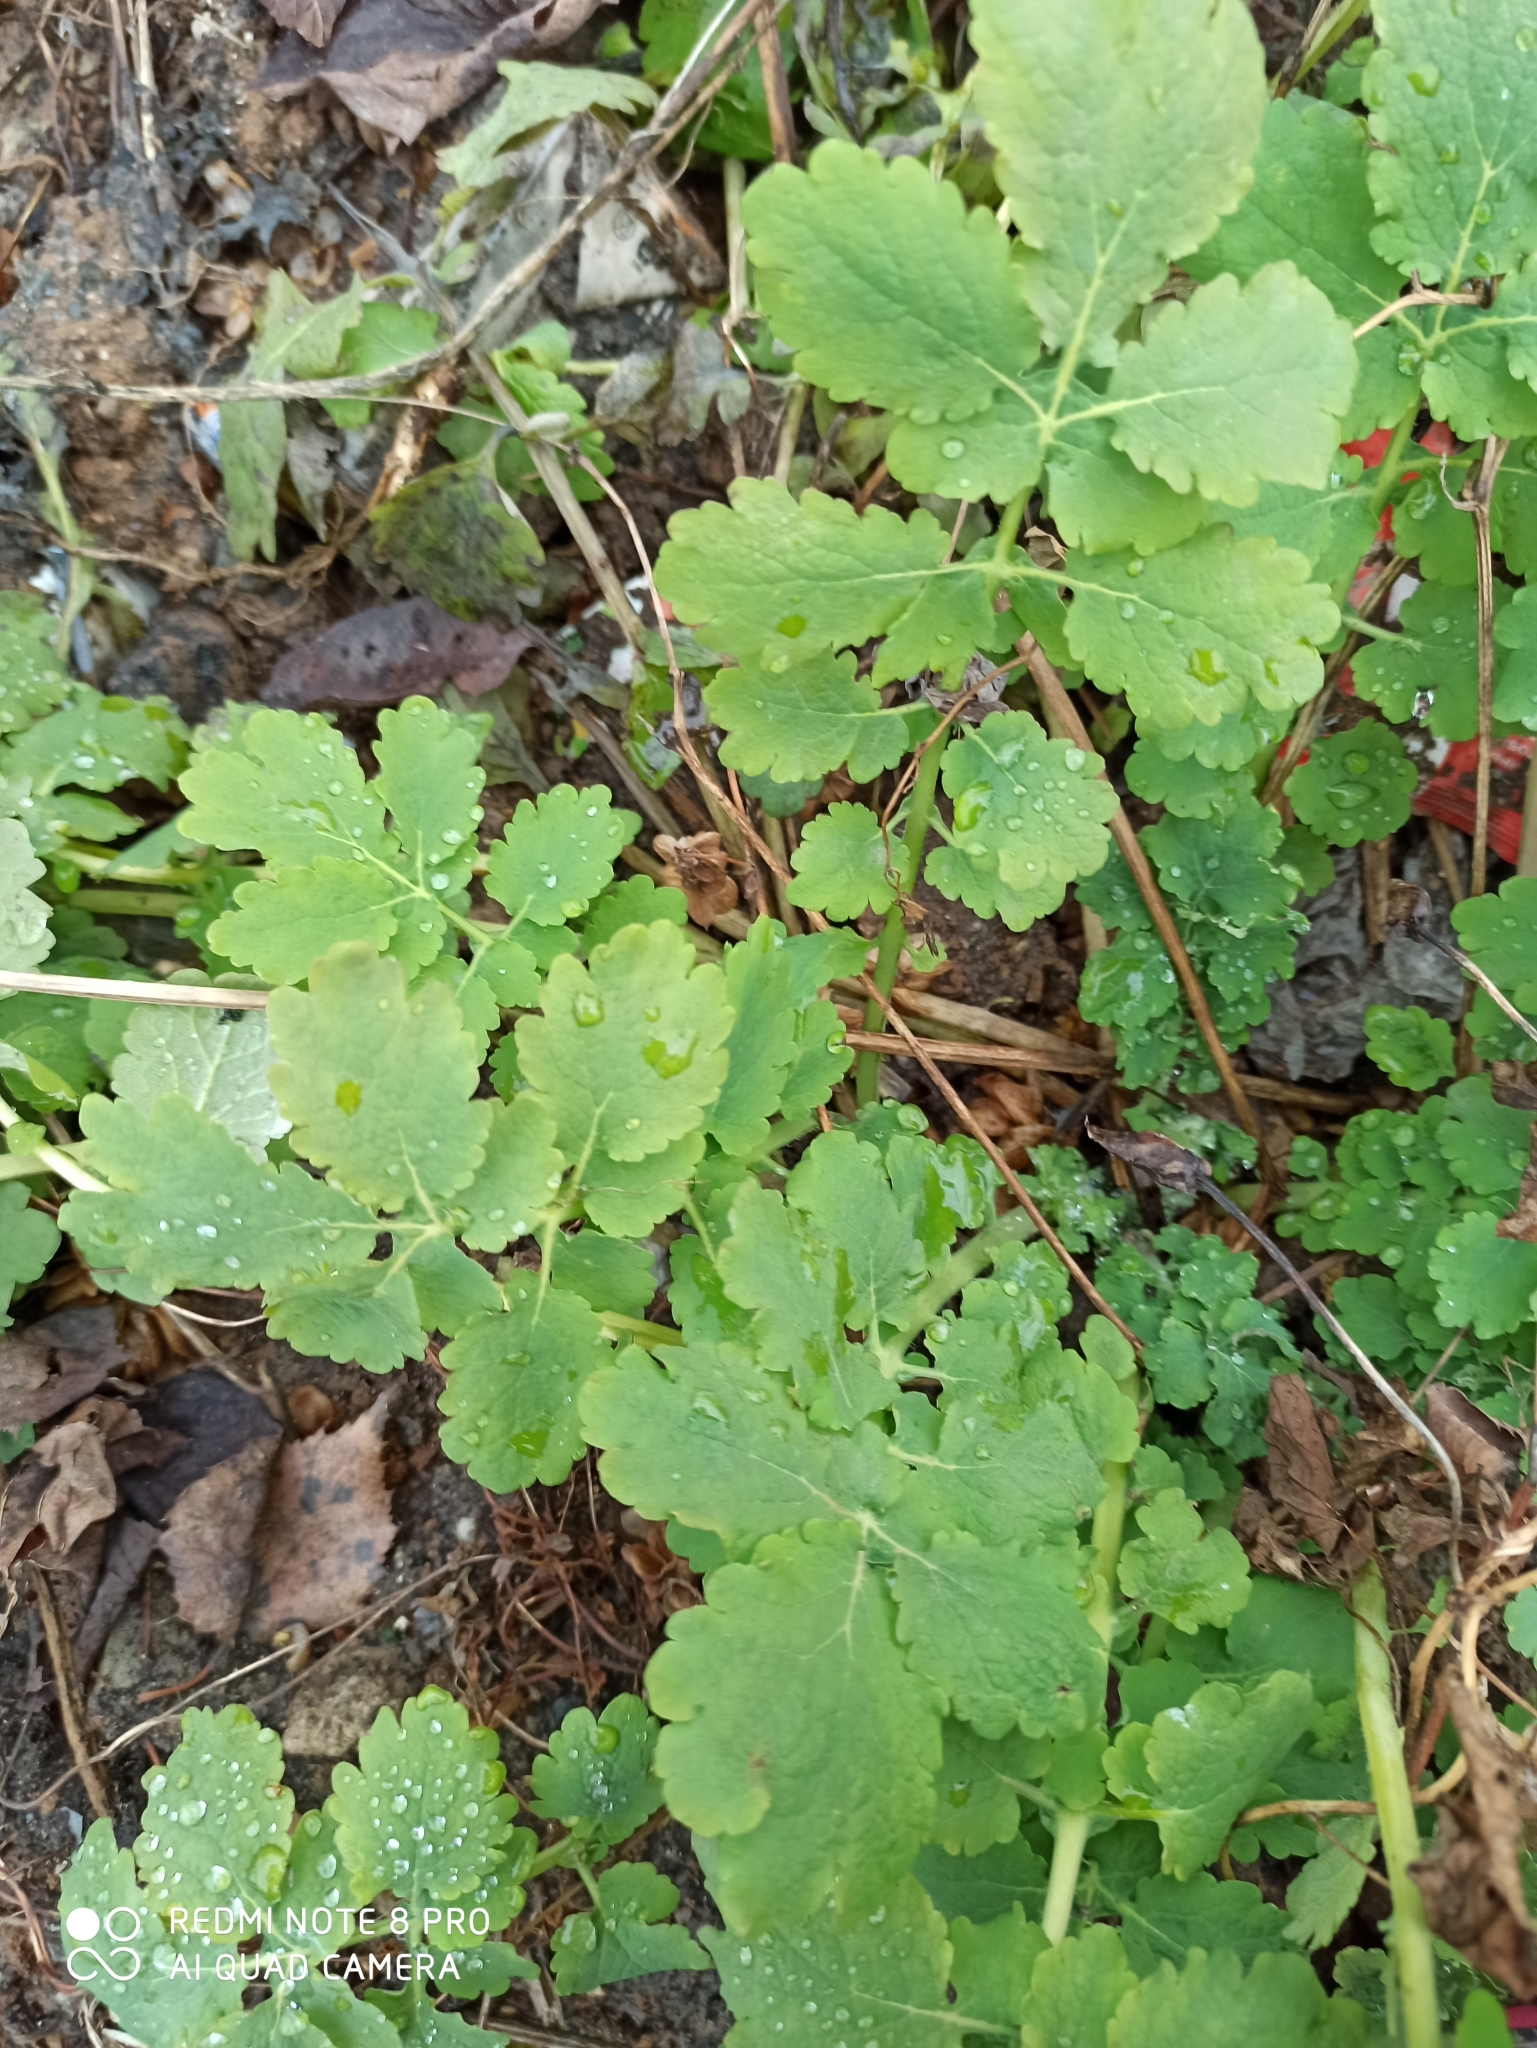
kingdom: Plantae
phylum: Tracheophyta
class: Magnoliopsida
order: Ranunculales
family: Papaveraceae
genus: Chelidonium
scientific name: Chelidonium majus
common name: Greater celandine
